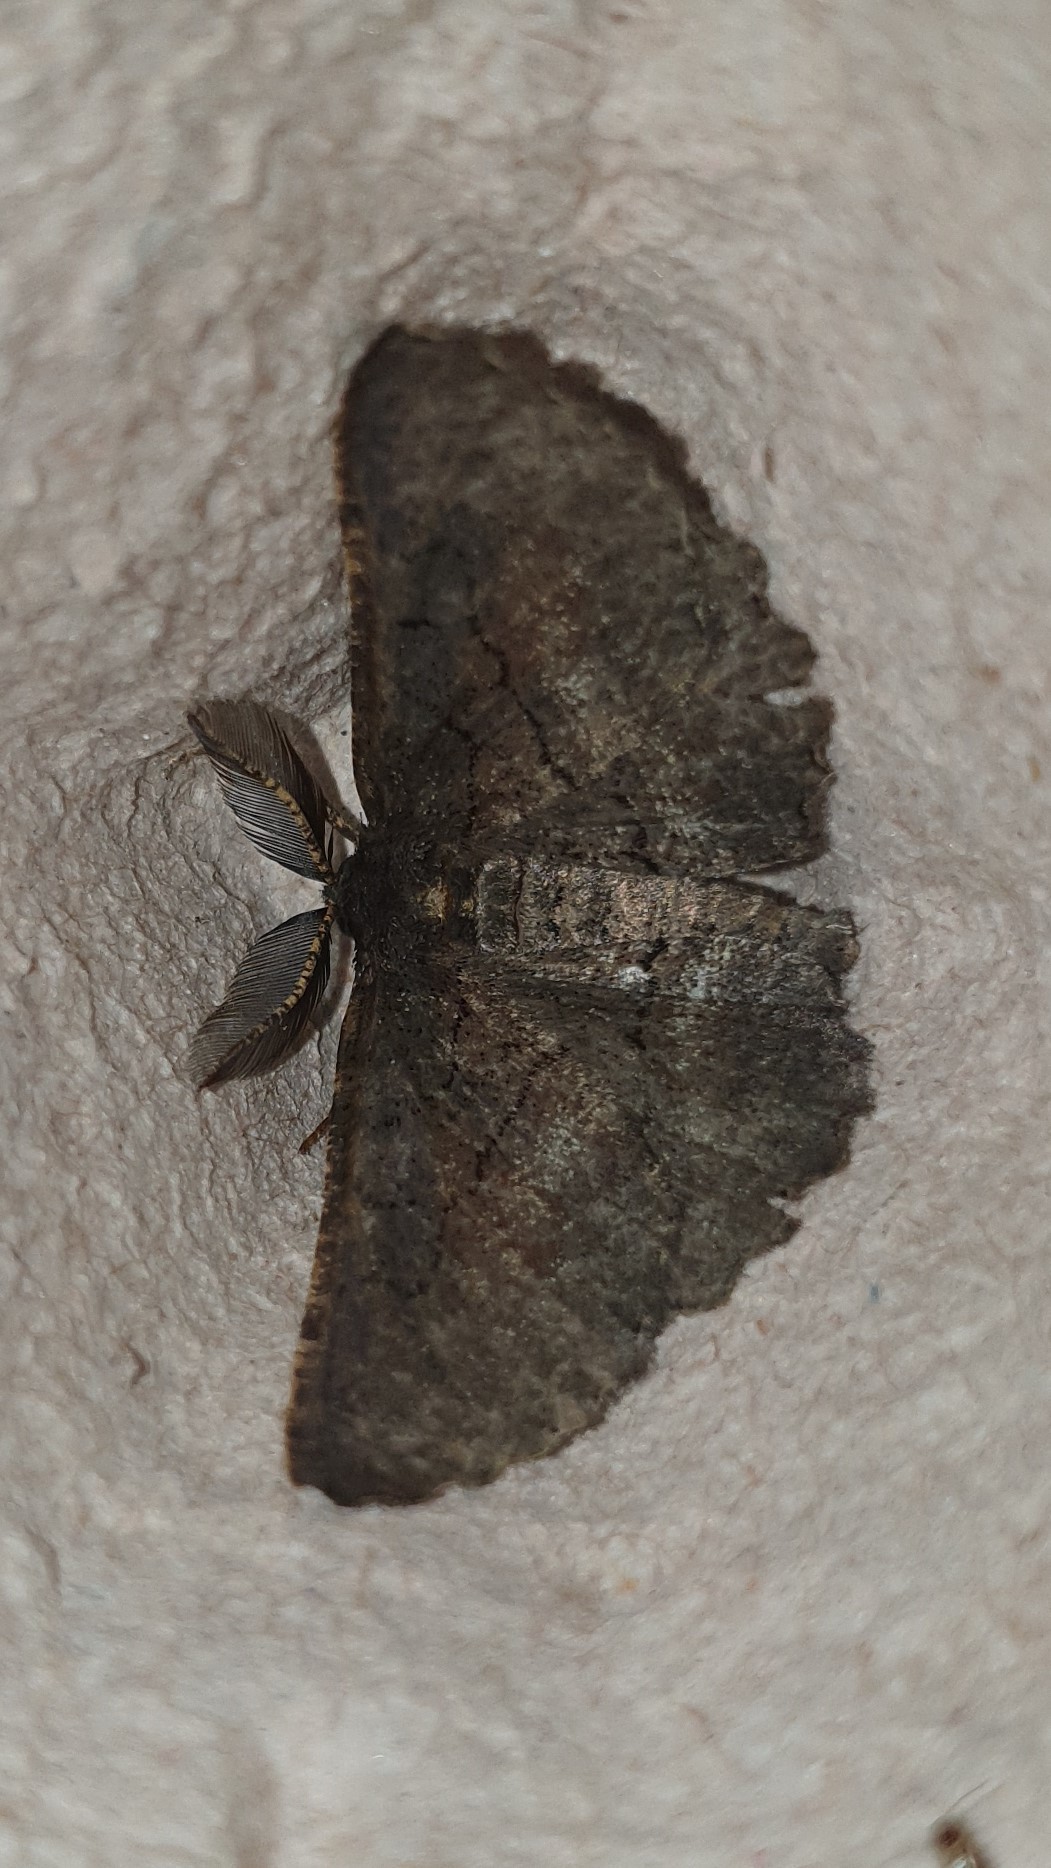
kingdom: Animalia
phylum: Arthropoda
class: Insecta
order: Lepidoptera
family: Geometridae
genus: Nychiodes
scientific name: Nychiodes hispanica
